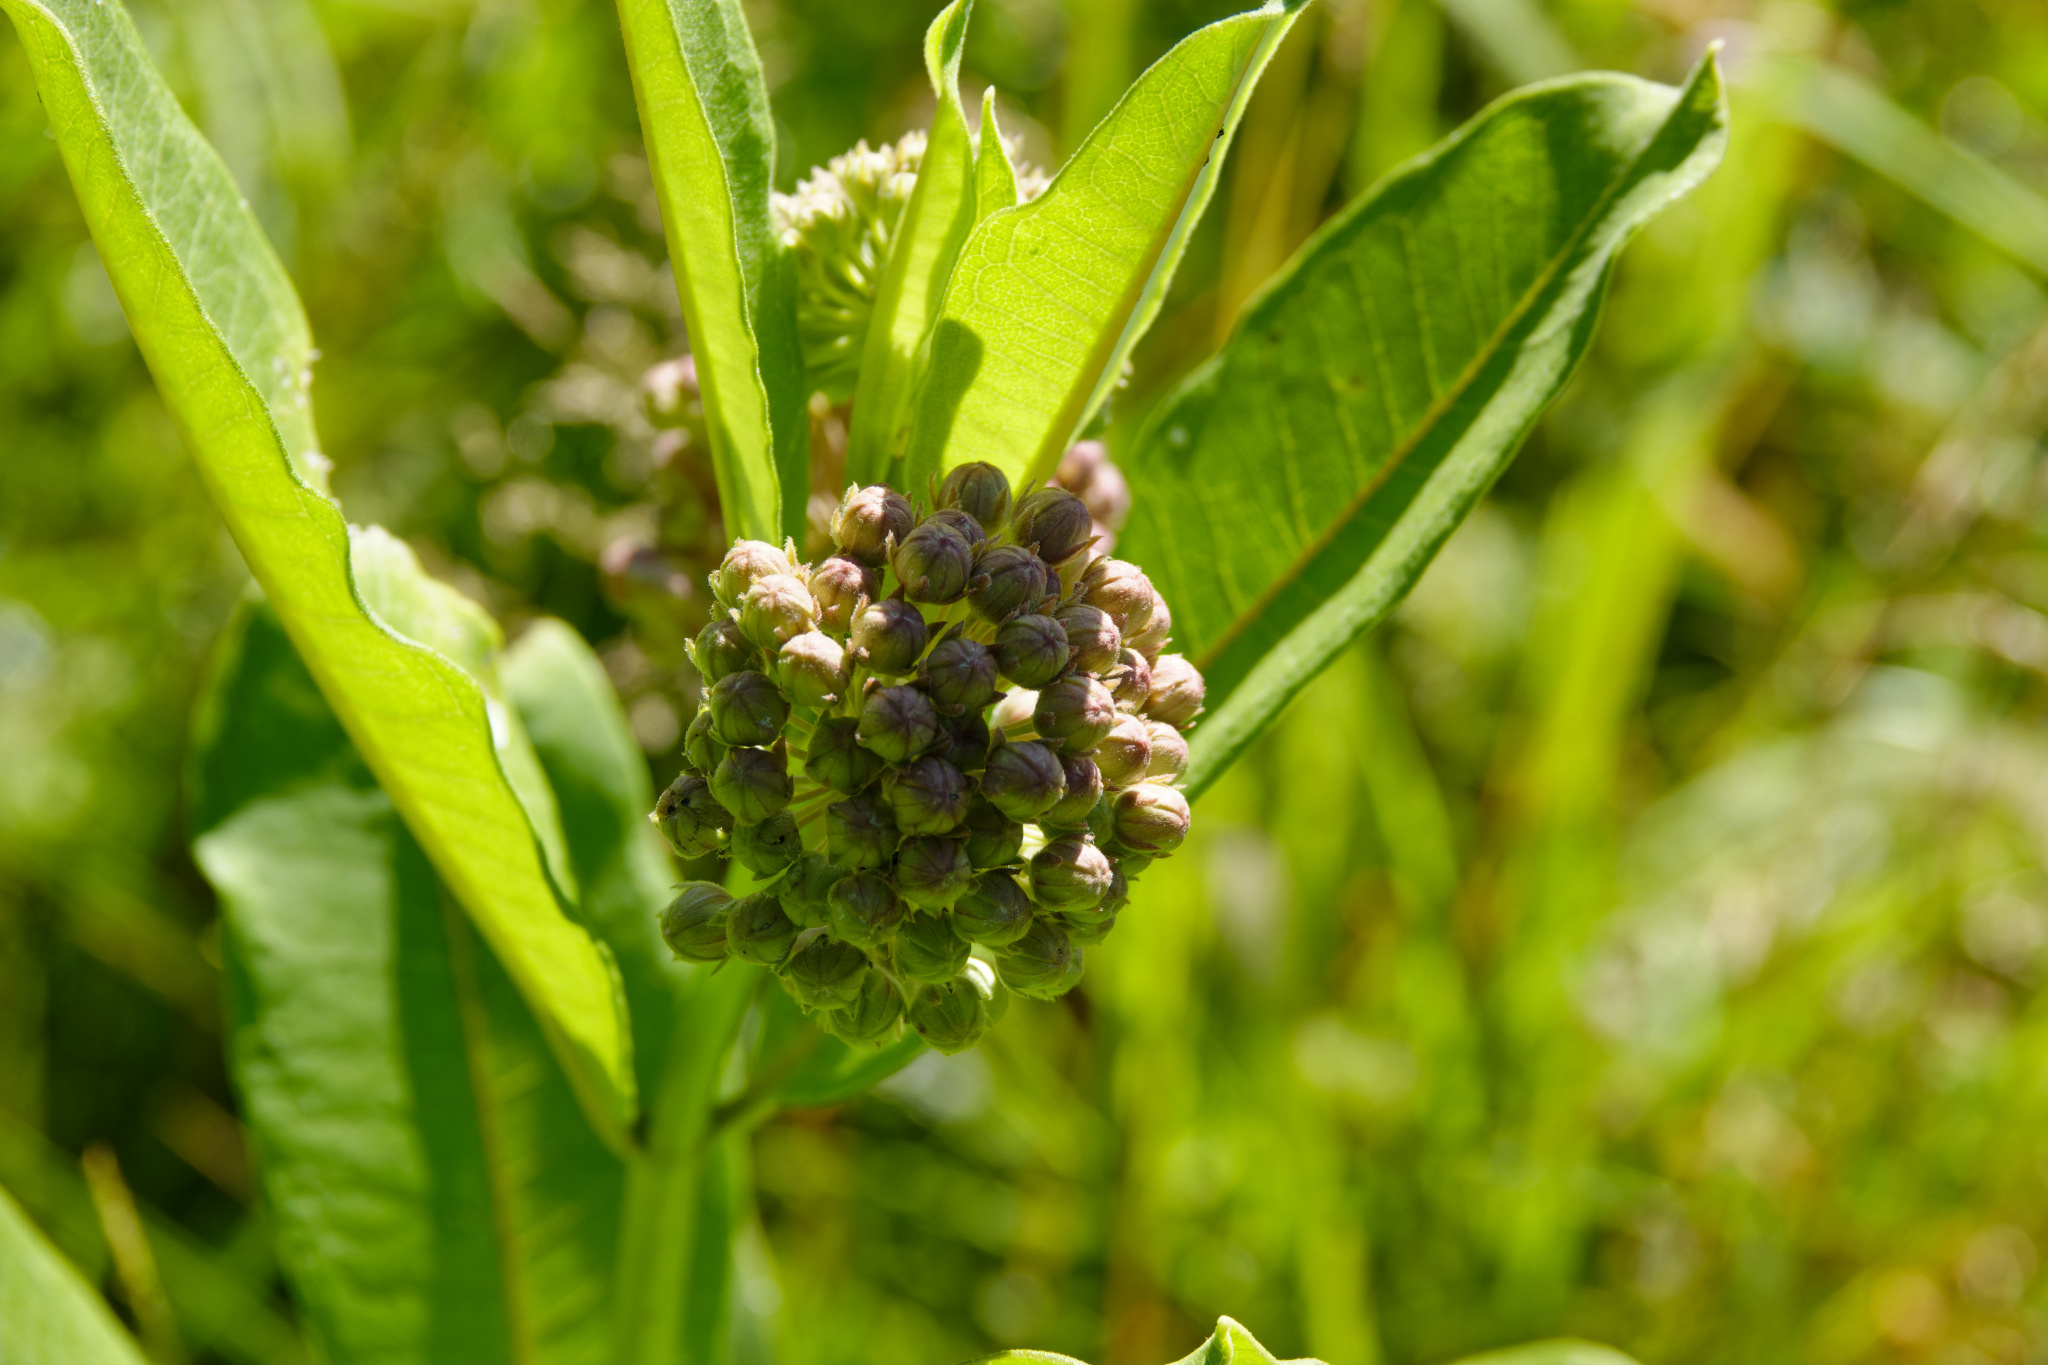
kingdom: Plantae
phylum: Tracheophyta
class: Magnoliopsida
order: Gentianales
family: Apocynaceae
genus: Asclepias
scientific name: Asclepias syriaca
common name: Common milkweed
